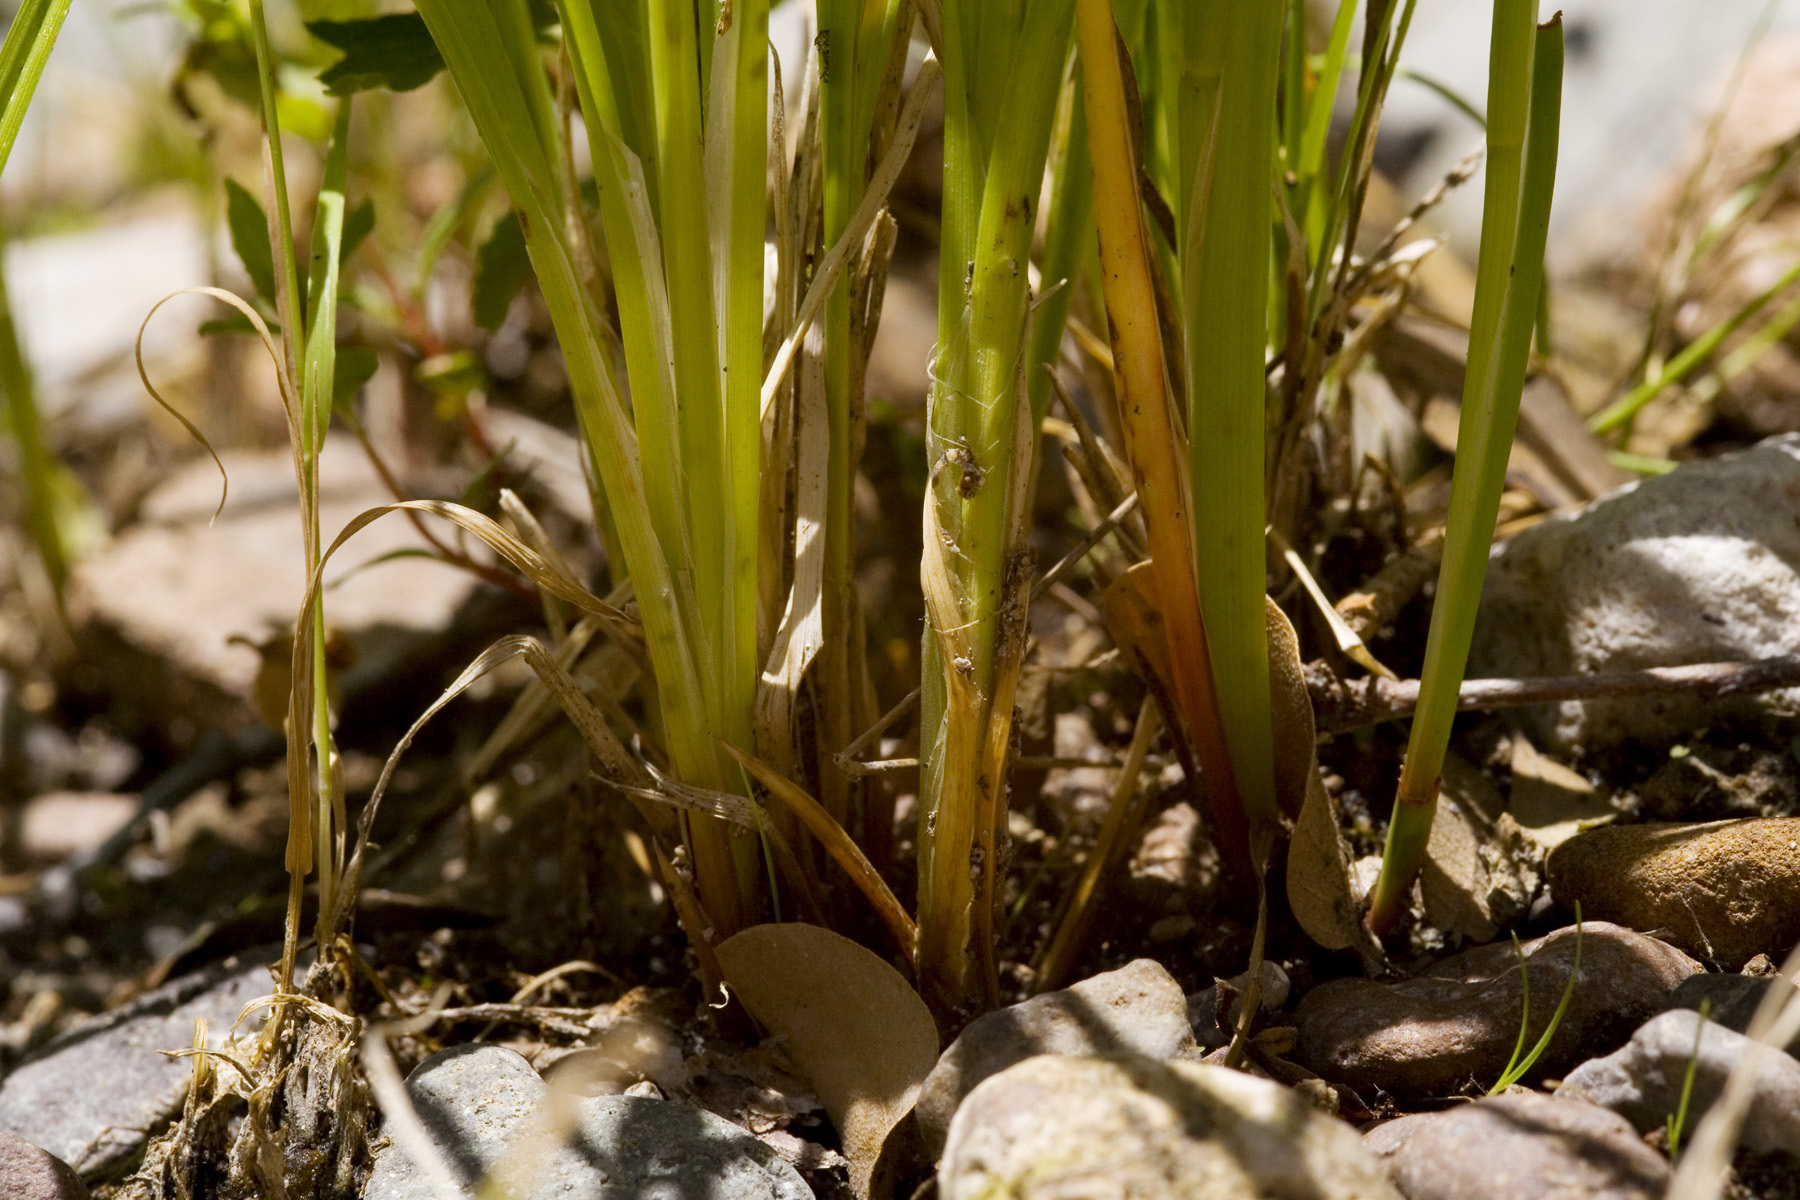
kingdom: Plantae
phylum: Tracheophyta
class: Liliopsida
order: Poales
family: Juncaceae
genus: Juncus
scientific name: Juncus ensifolius
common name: Sword-leaved rush
